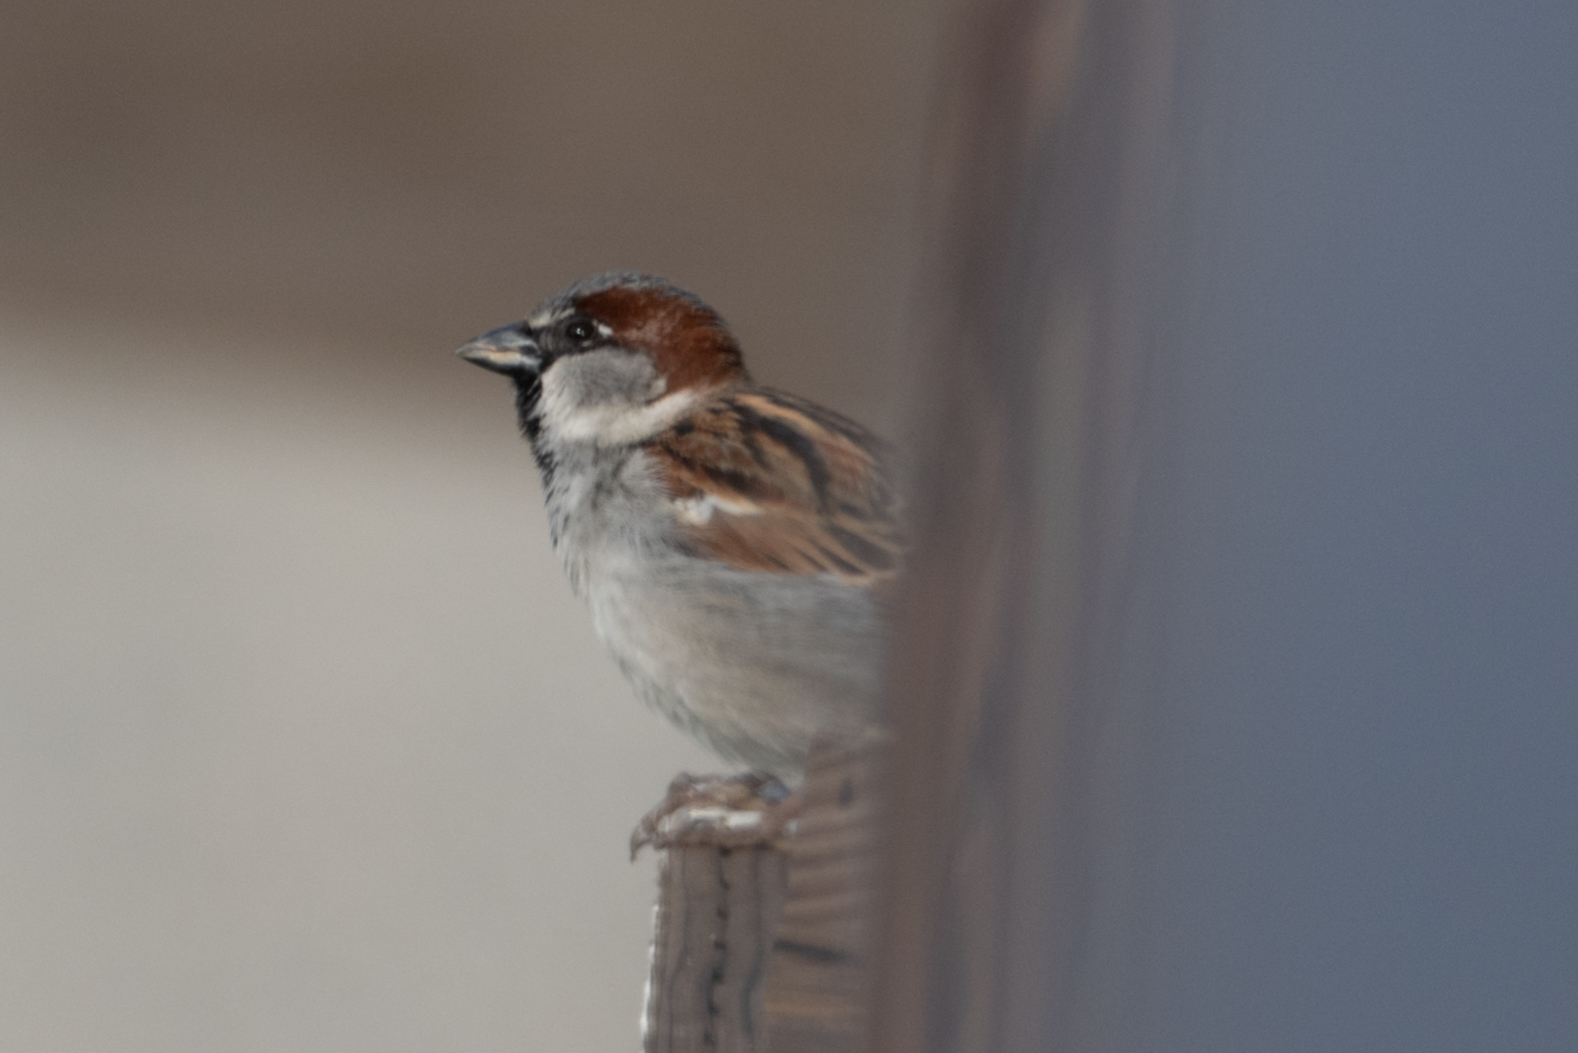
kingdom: Animalia
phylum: Chordata
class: Aves
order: Passeriformes
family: Passeridae
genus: Passer
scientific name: Passer domesticus
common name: House sparrow
